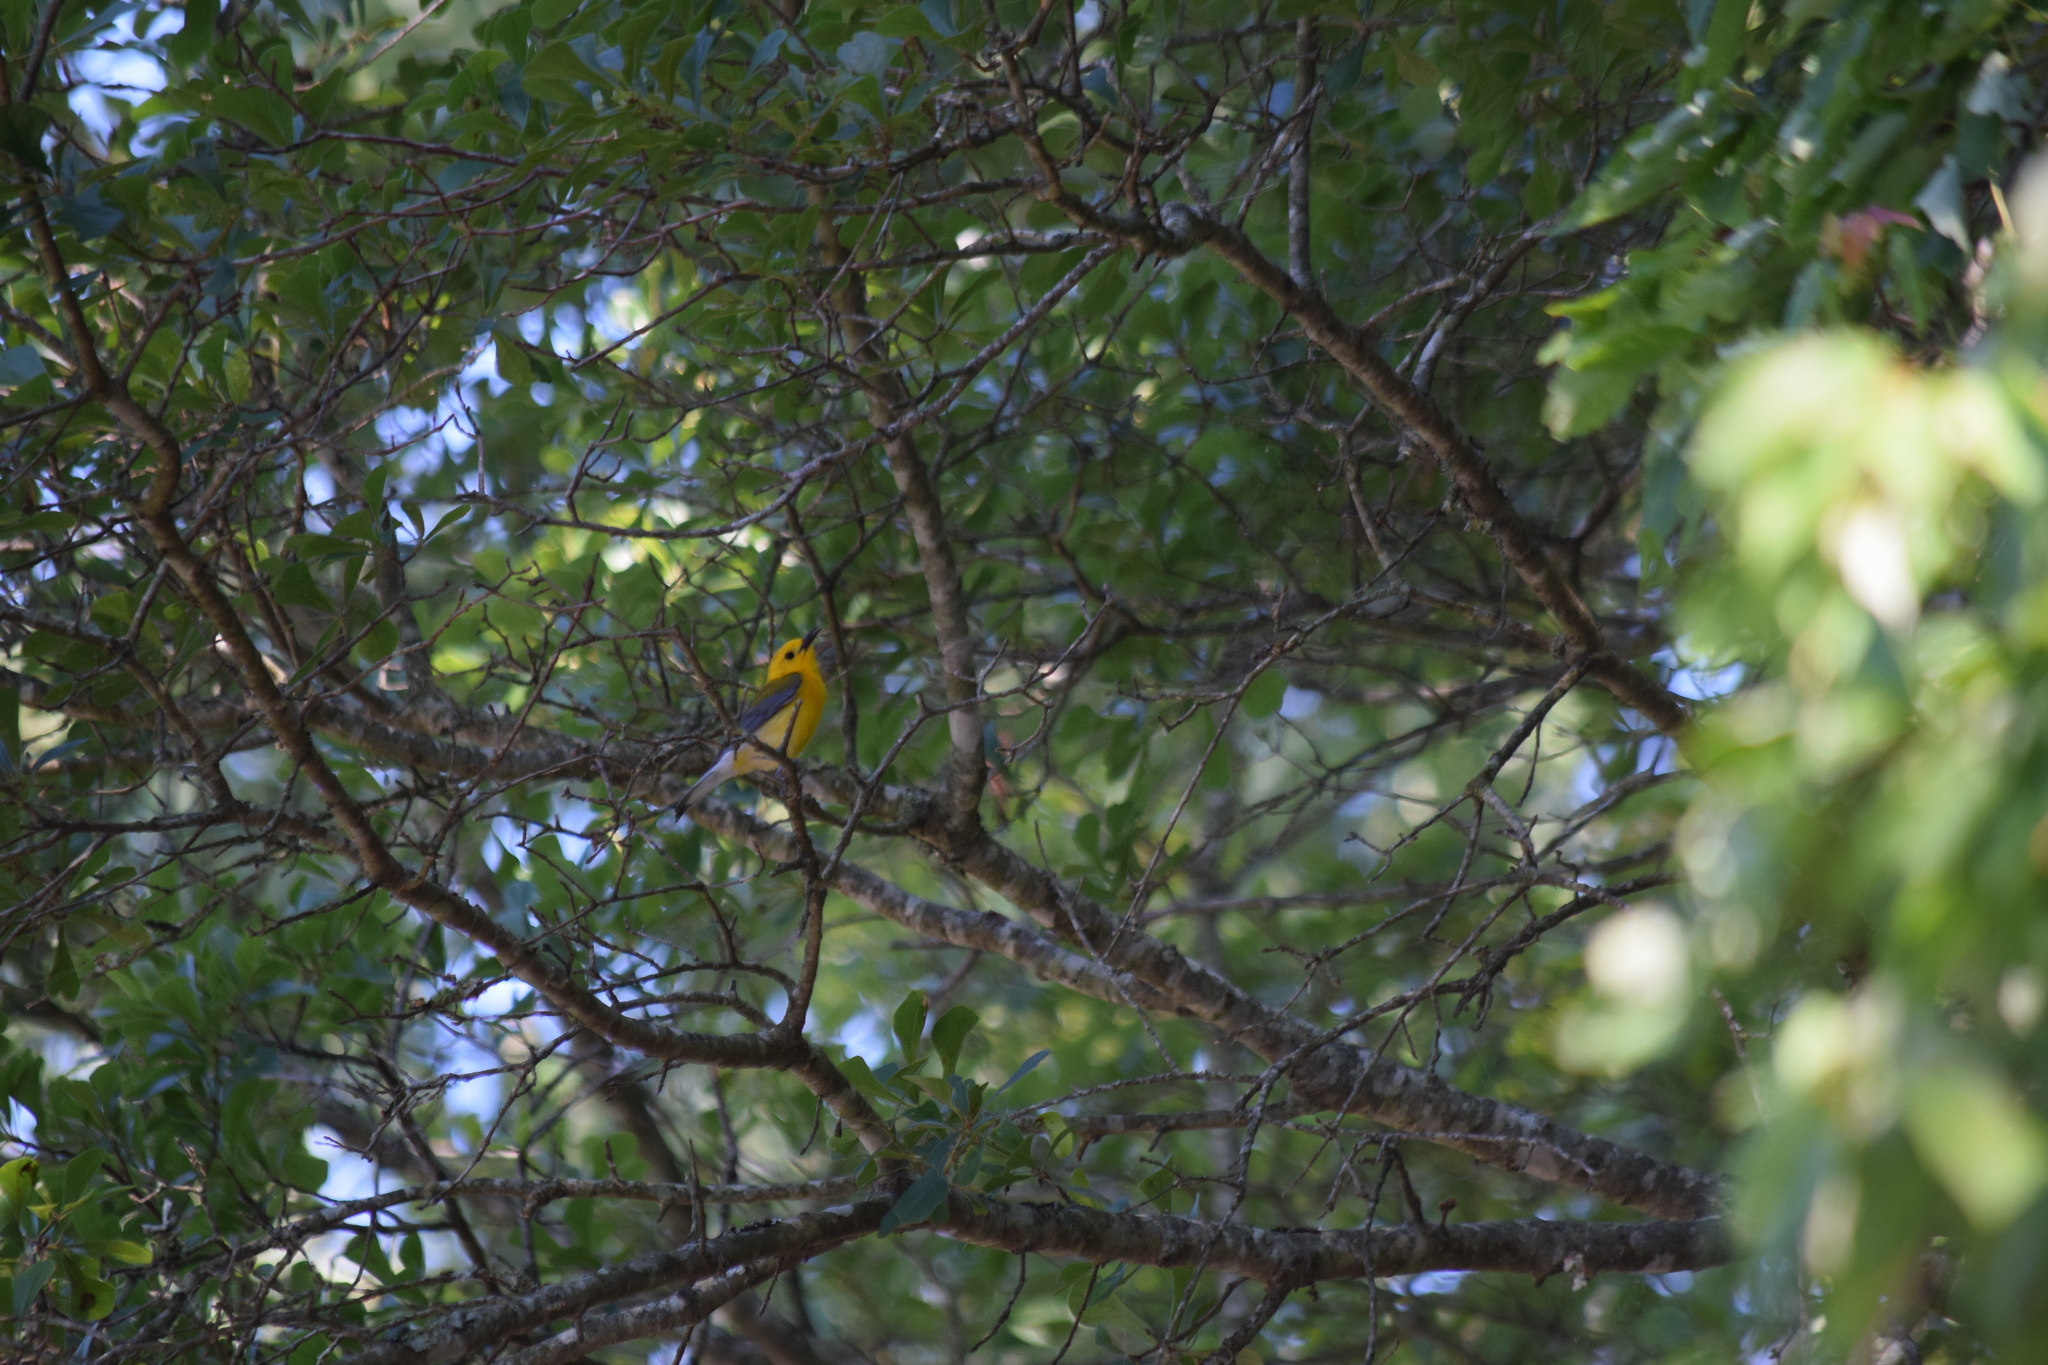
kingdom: Animalia
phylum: Chordata
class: Aves
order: Passeriformes
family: Parulidae
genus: Protonotaria
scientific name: Protonotaria citrea
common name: Prothonotary warbler
